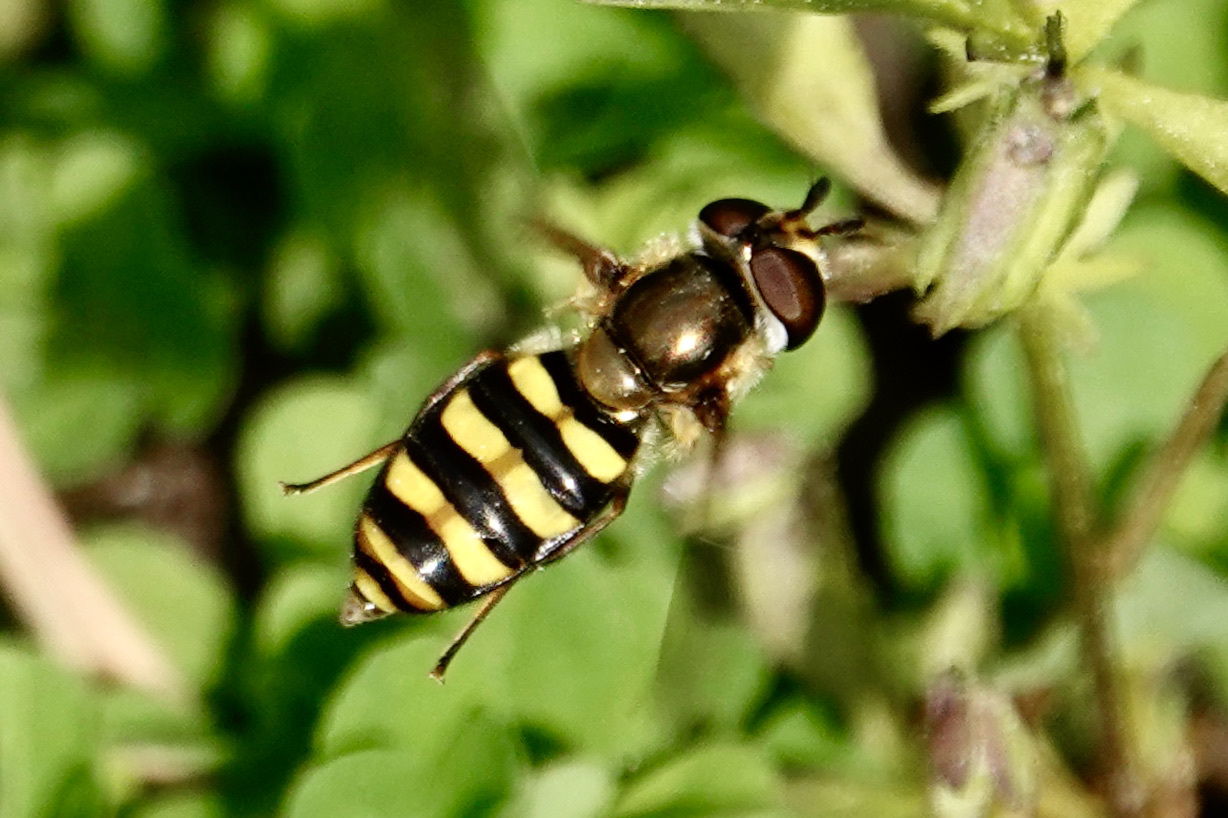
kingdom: Animalia
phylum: Arthropoda
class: Insecta
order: Diptera
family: Syrphidae
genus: Eupeodes
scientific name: Eupeodes
